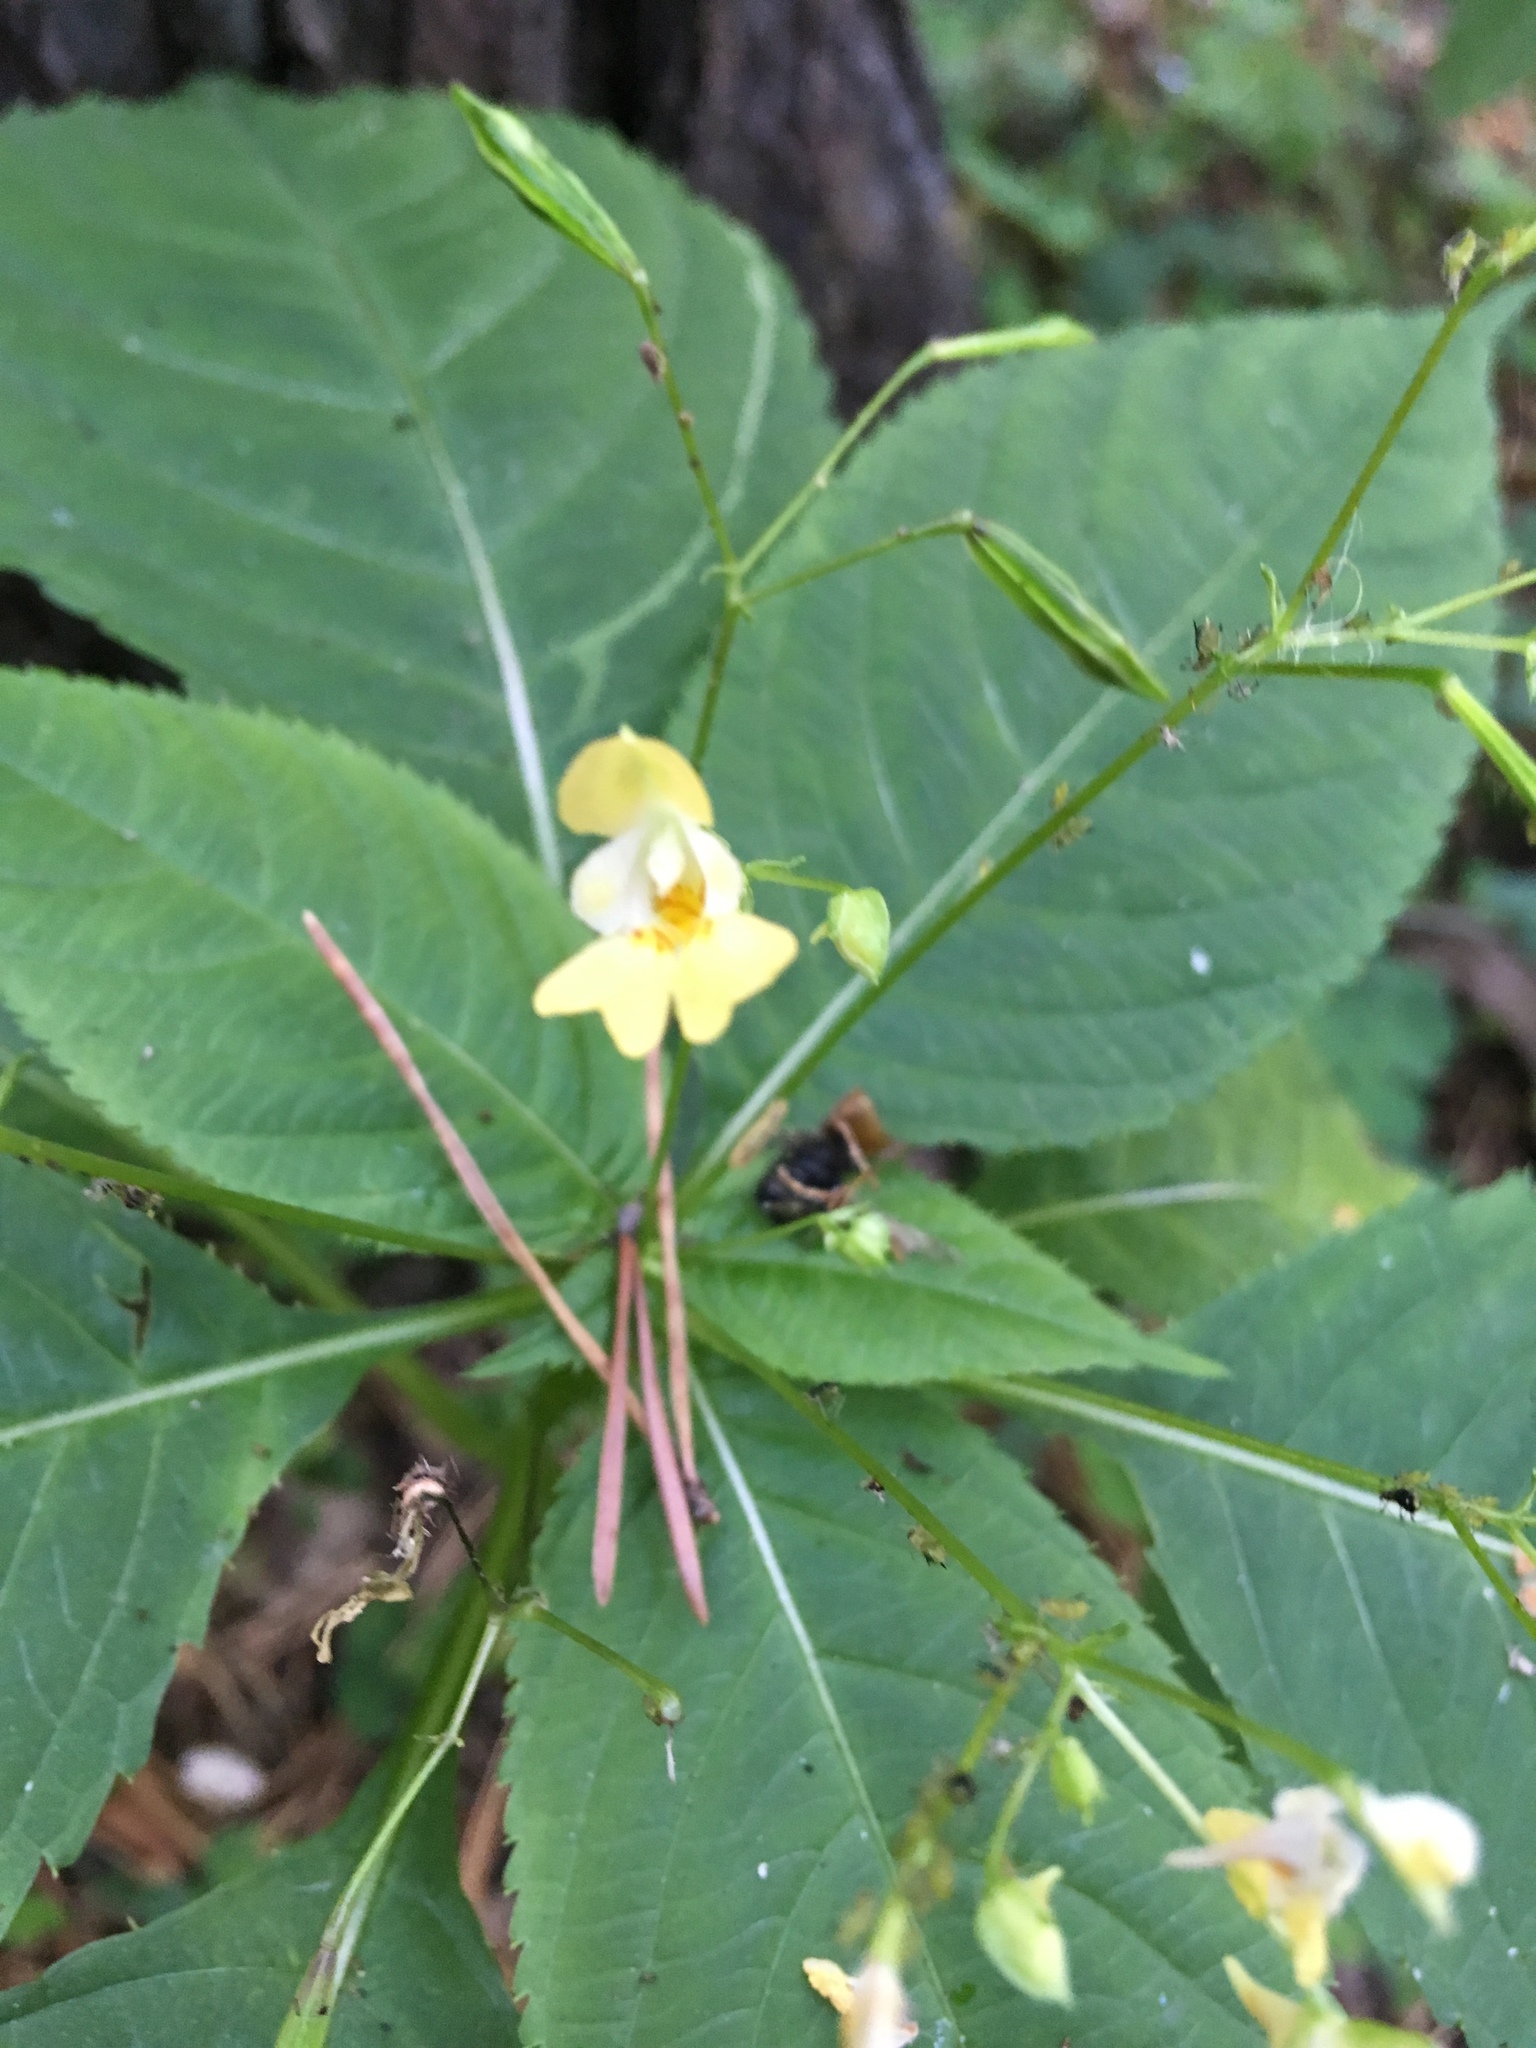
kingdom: Plantae
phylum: Tracheophyta
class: Magnoliopsida
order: Ericales
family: Balsaminaceae
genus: Impatiens
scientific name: Impatiens parviflora
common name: Small balsam
